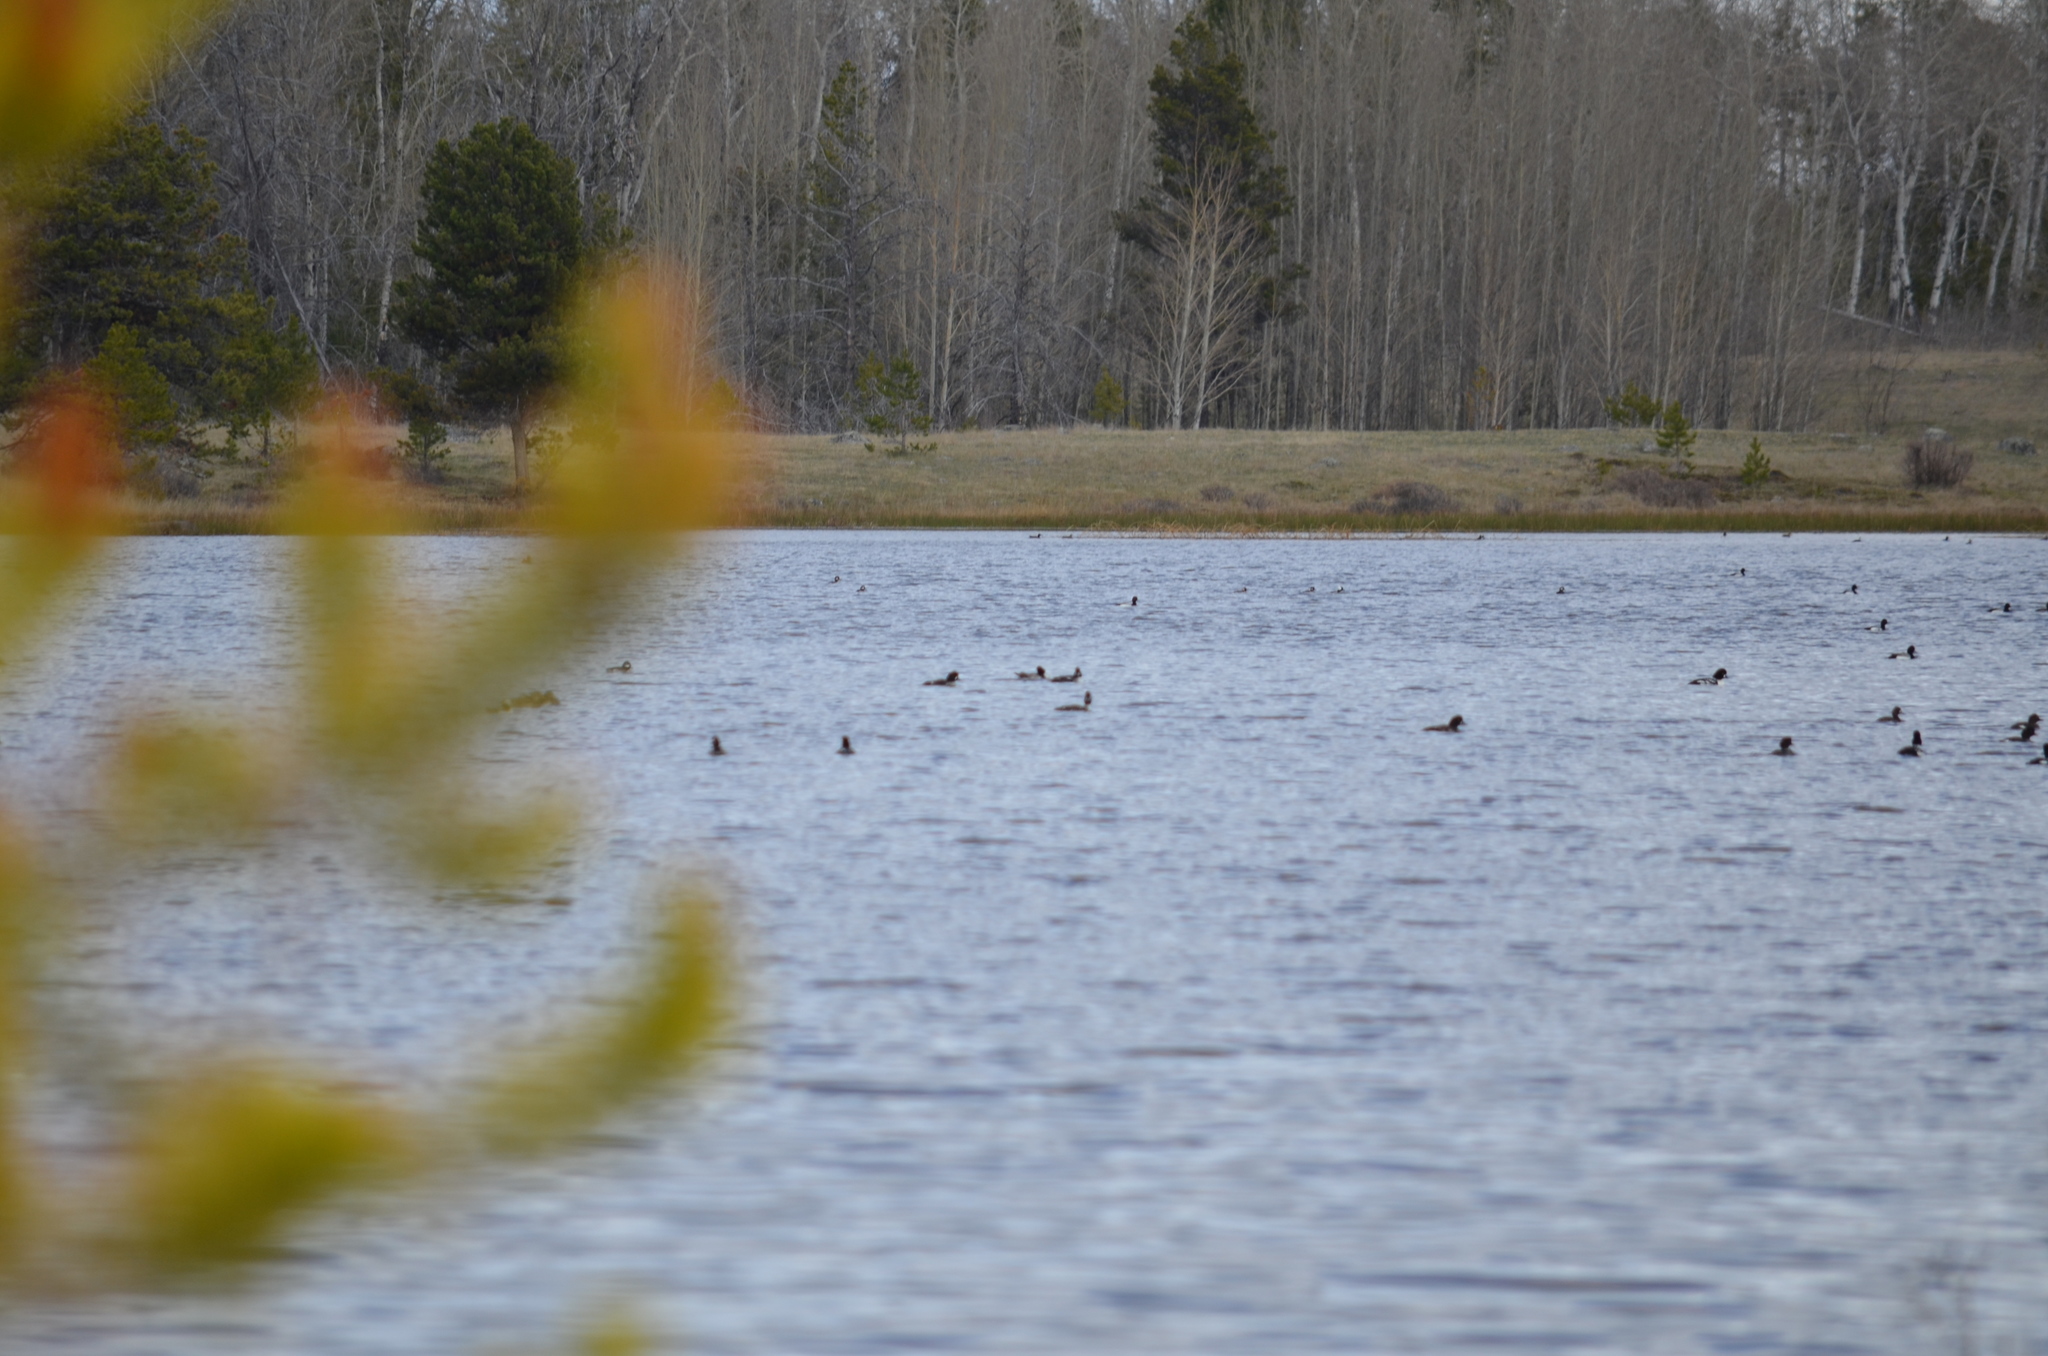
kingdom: Animalia
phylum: Chordata
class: Aves
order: Anseriformes
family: Anatidae
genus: Bucephala
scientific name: Bucephala islandica
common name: Barrow's goldeneye
